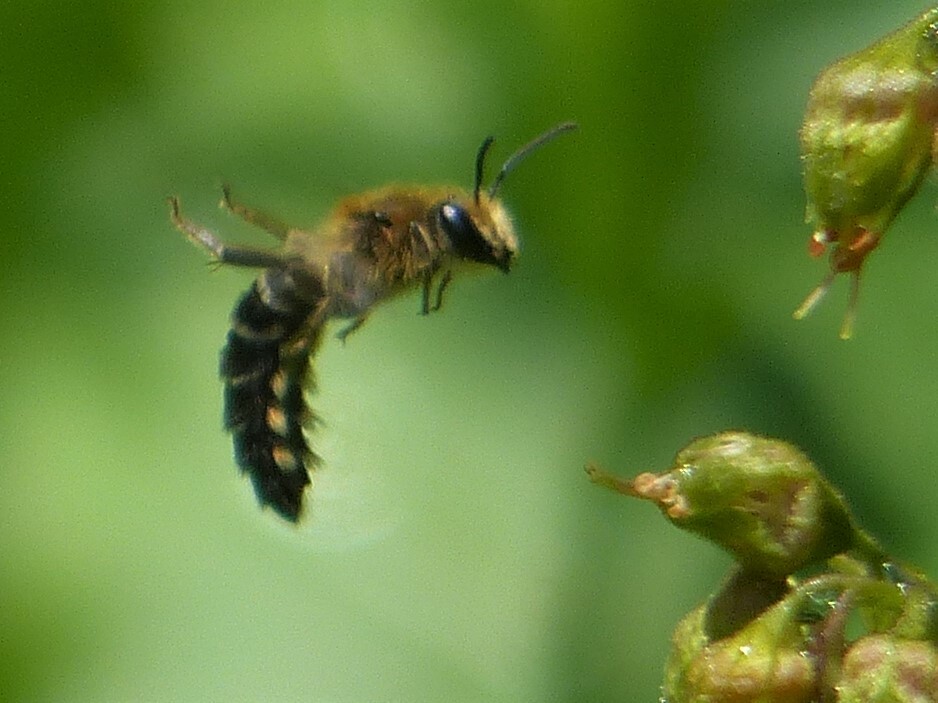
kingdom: Animalia
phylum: Arthropoda
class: Insecta
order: Hymenoptera
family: Colletidae
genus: Colletes
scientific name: Colletes aestivalis
